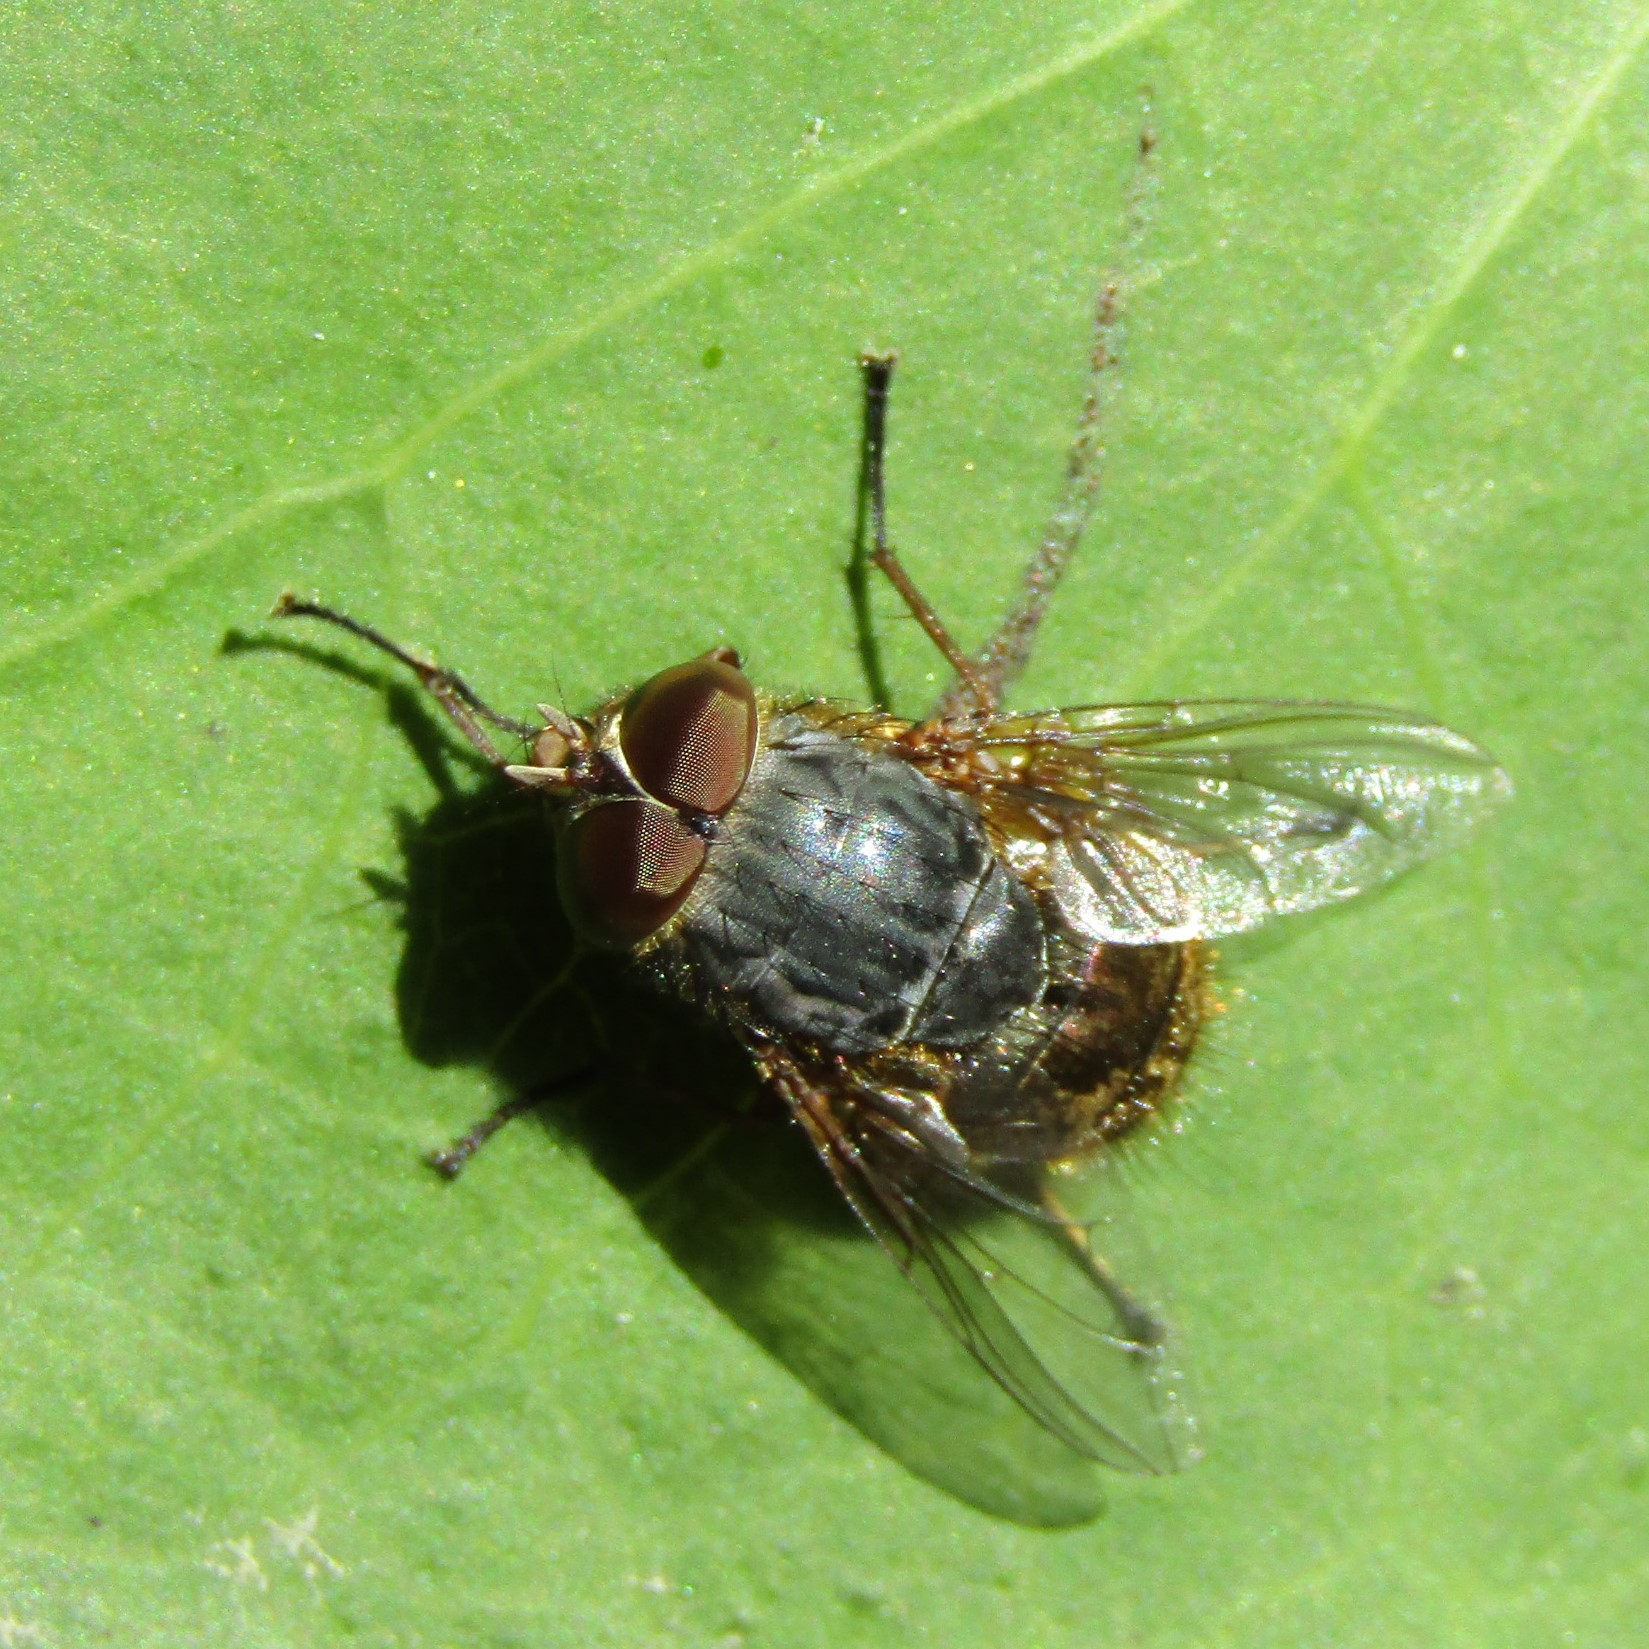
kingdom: Animalia
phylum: Arthropoda
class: Insecta
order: Diptera
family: Calliphoridae
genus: Calliphora
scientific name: Calliphora stygia
